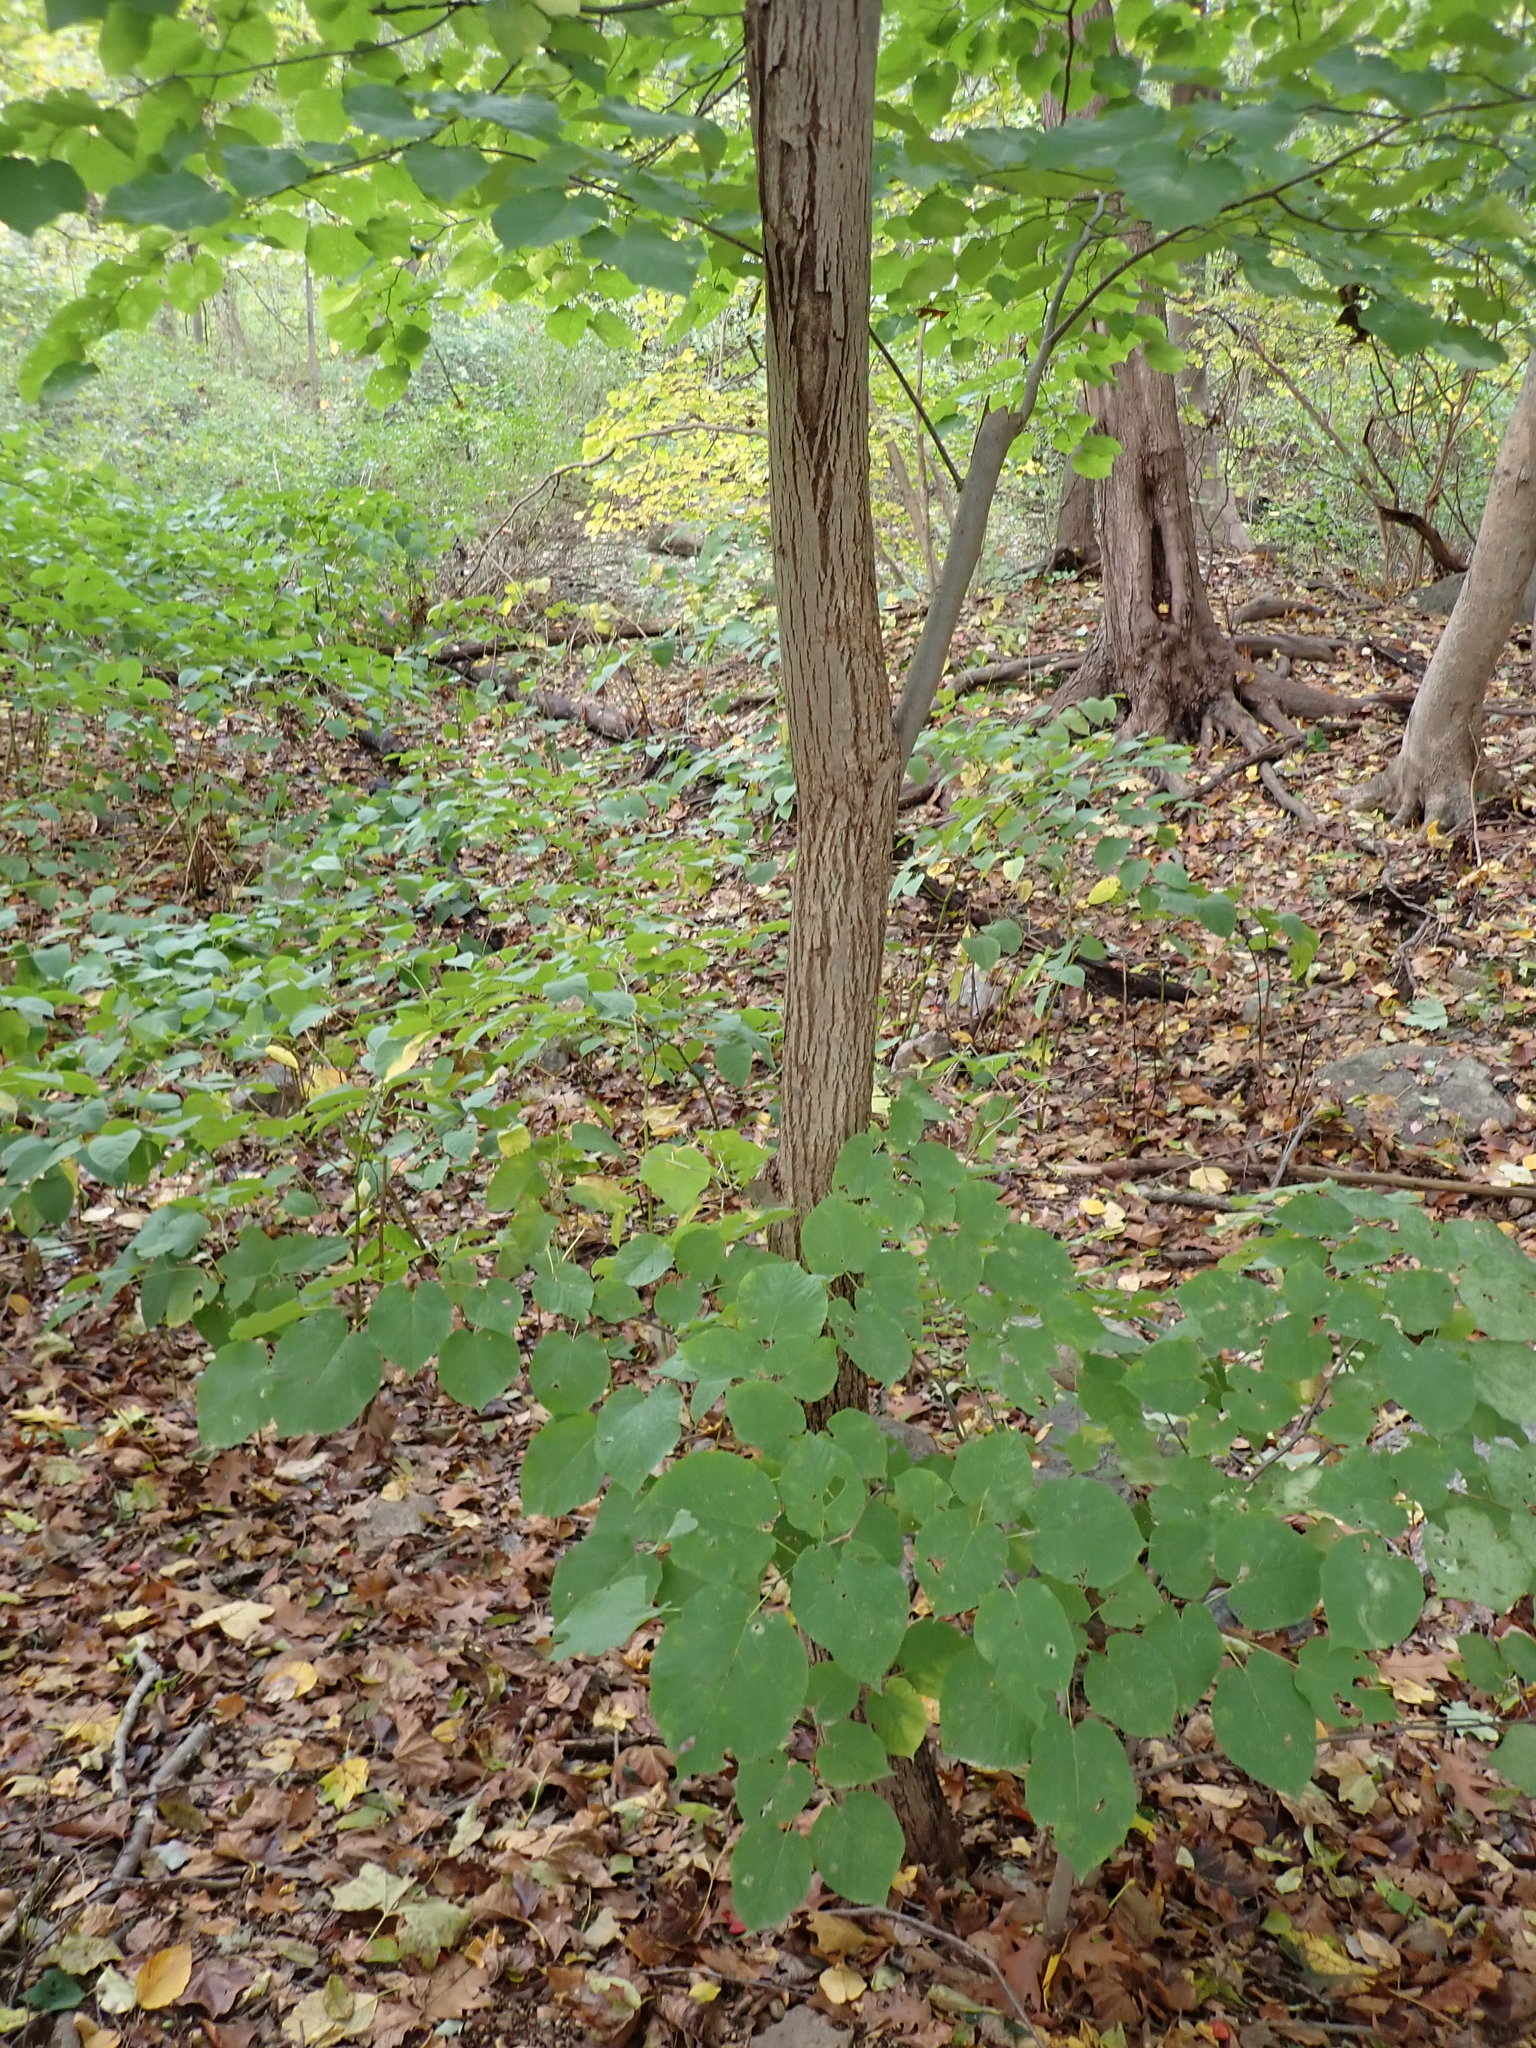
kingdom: Plantae
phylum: Tracheophyta
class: Magnoliopsida
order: Malvales
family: Malvaceae
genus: Tilia
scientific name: Tilia americana
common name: Basswood
